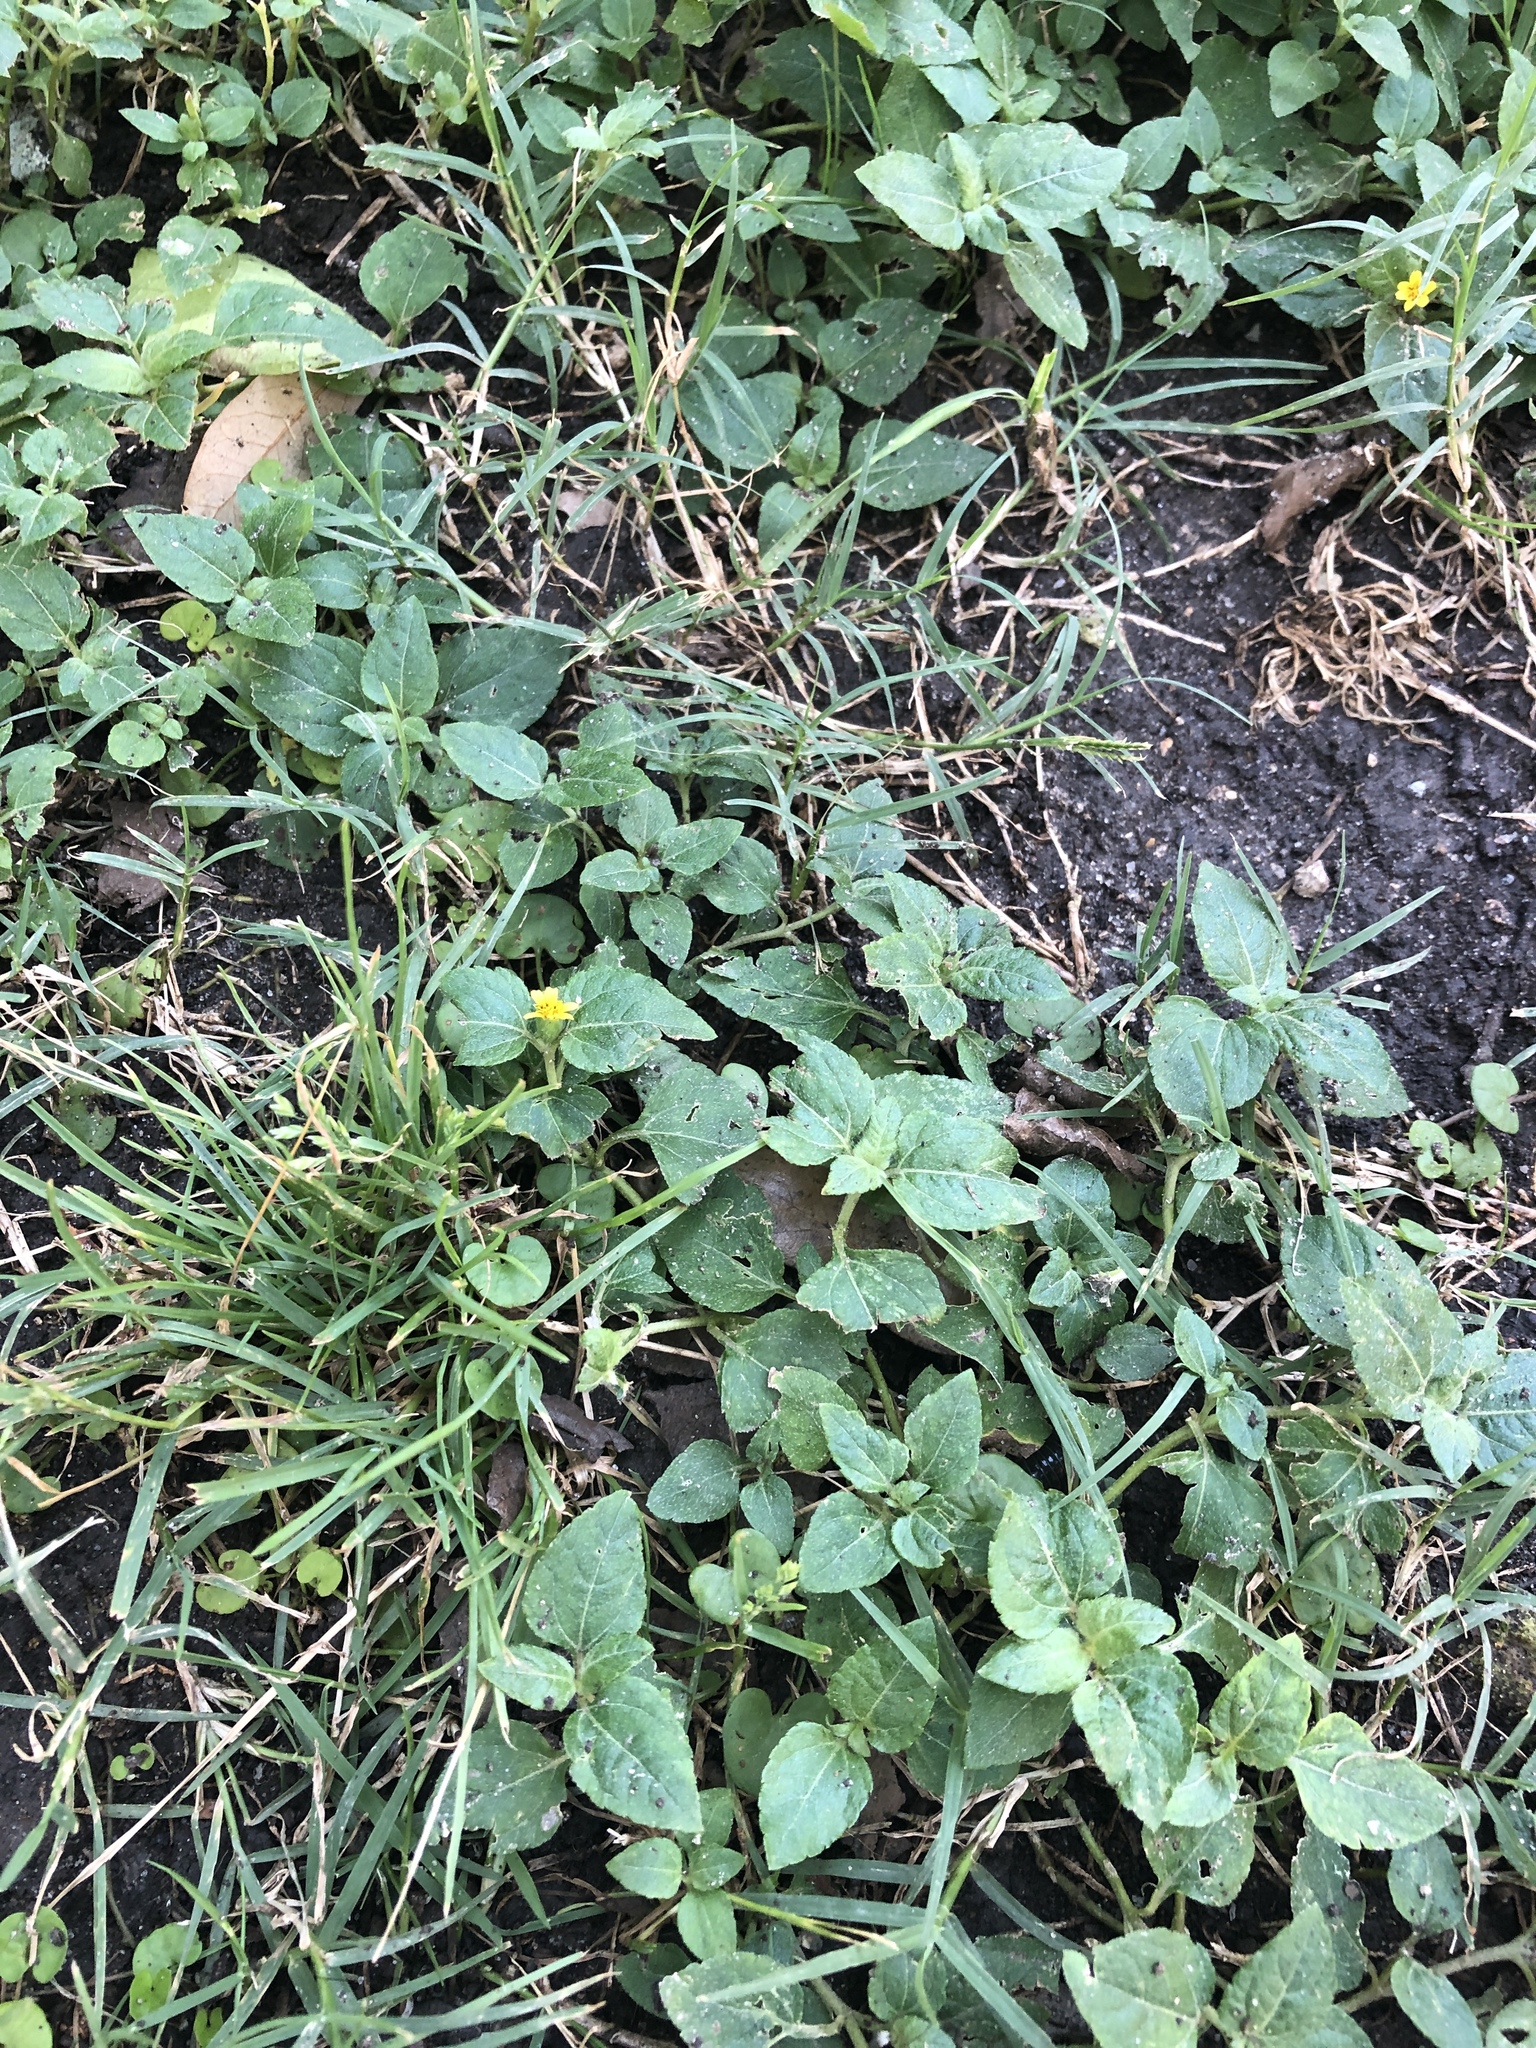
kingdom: Plantae
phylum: Tracheophyta
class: Magnoliopsida
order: Asterales
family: Asteraceae
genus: Calyptocarpus
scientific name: Calyptocarpus vialis
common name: Straggler daisy
